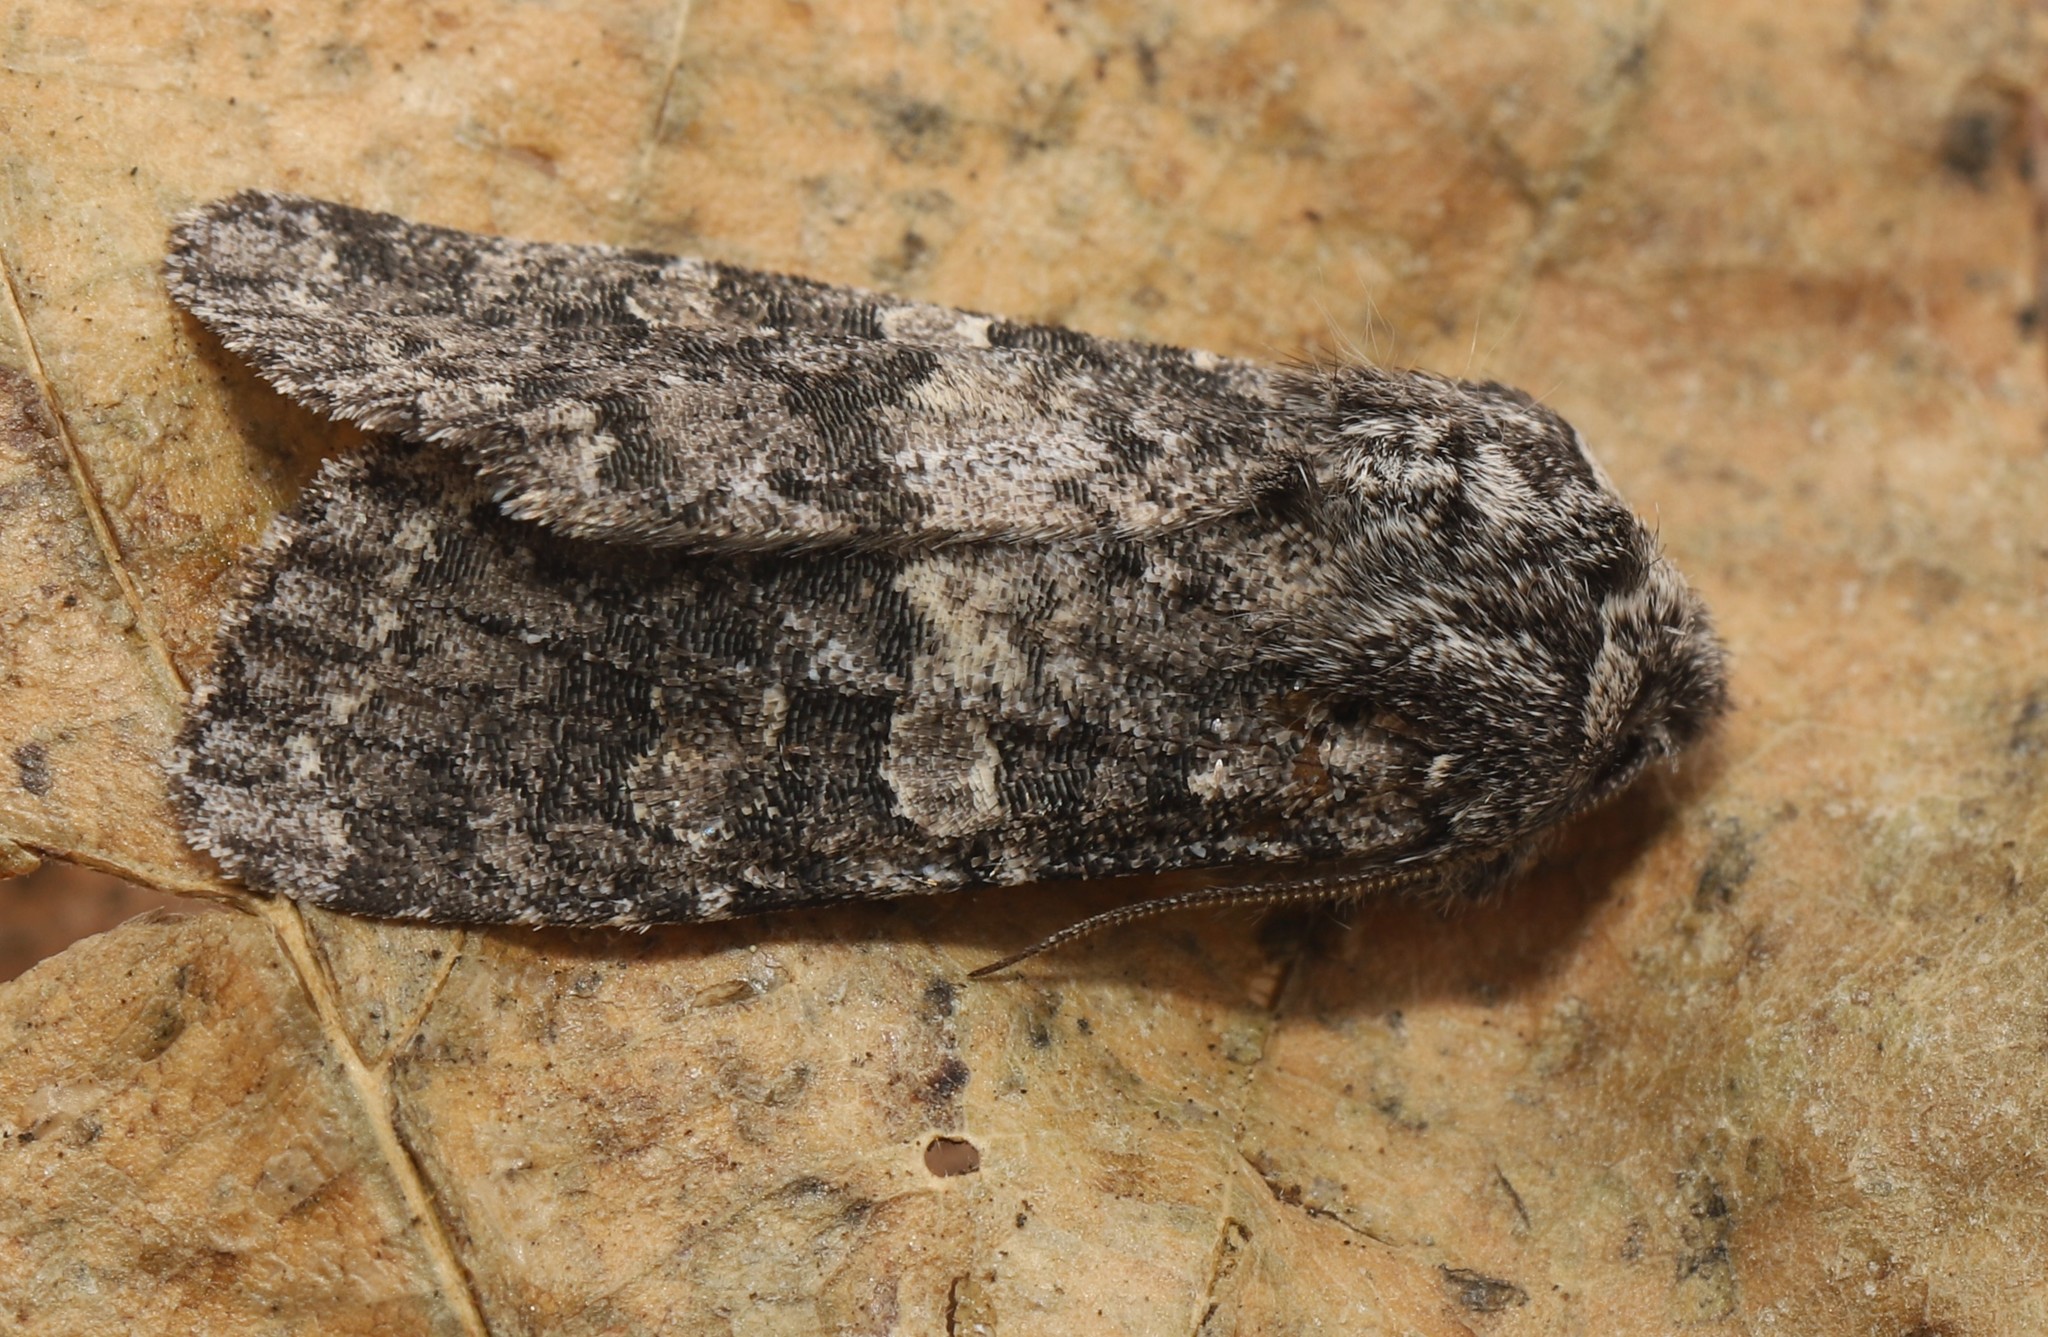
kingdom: Animalia
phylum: Arthropoda
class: Insecta
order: Lepidoptera
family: Noctuidae
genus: Egira
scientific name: Egira dolosa
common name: Lined black aspen cat.
